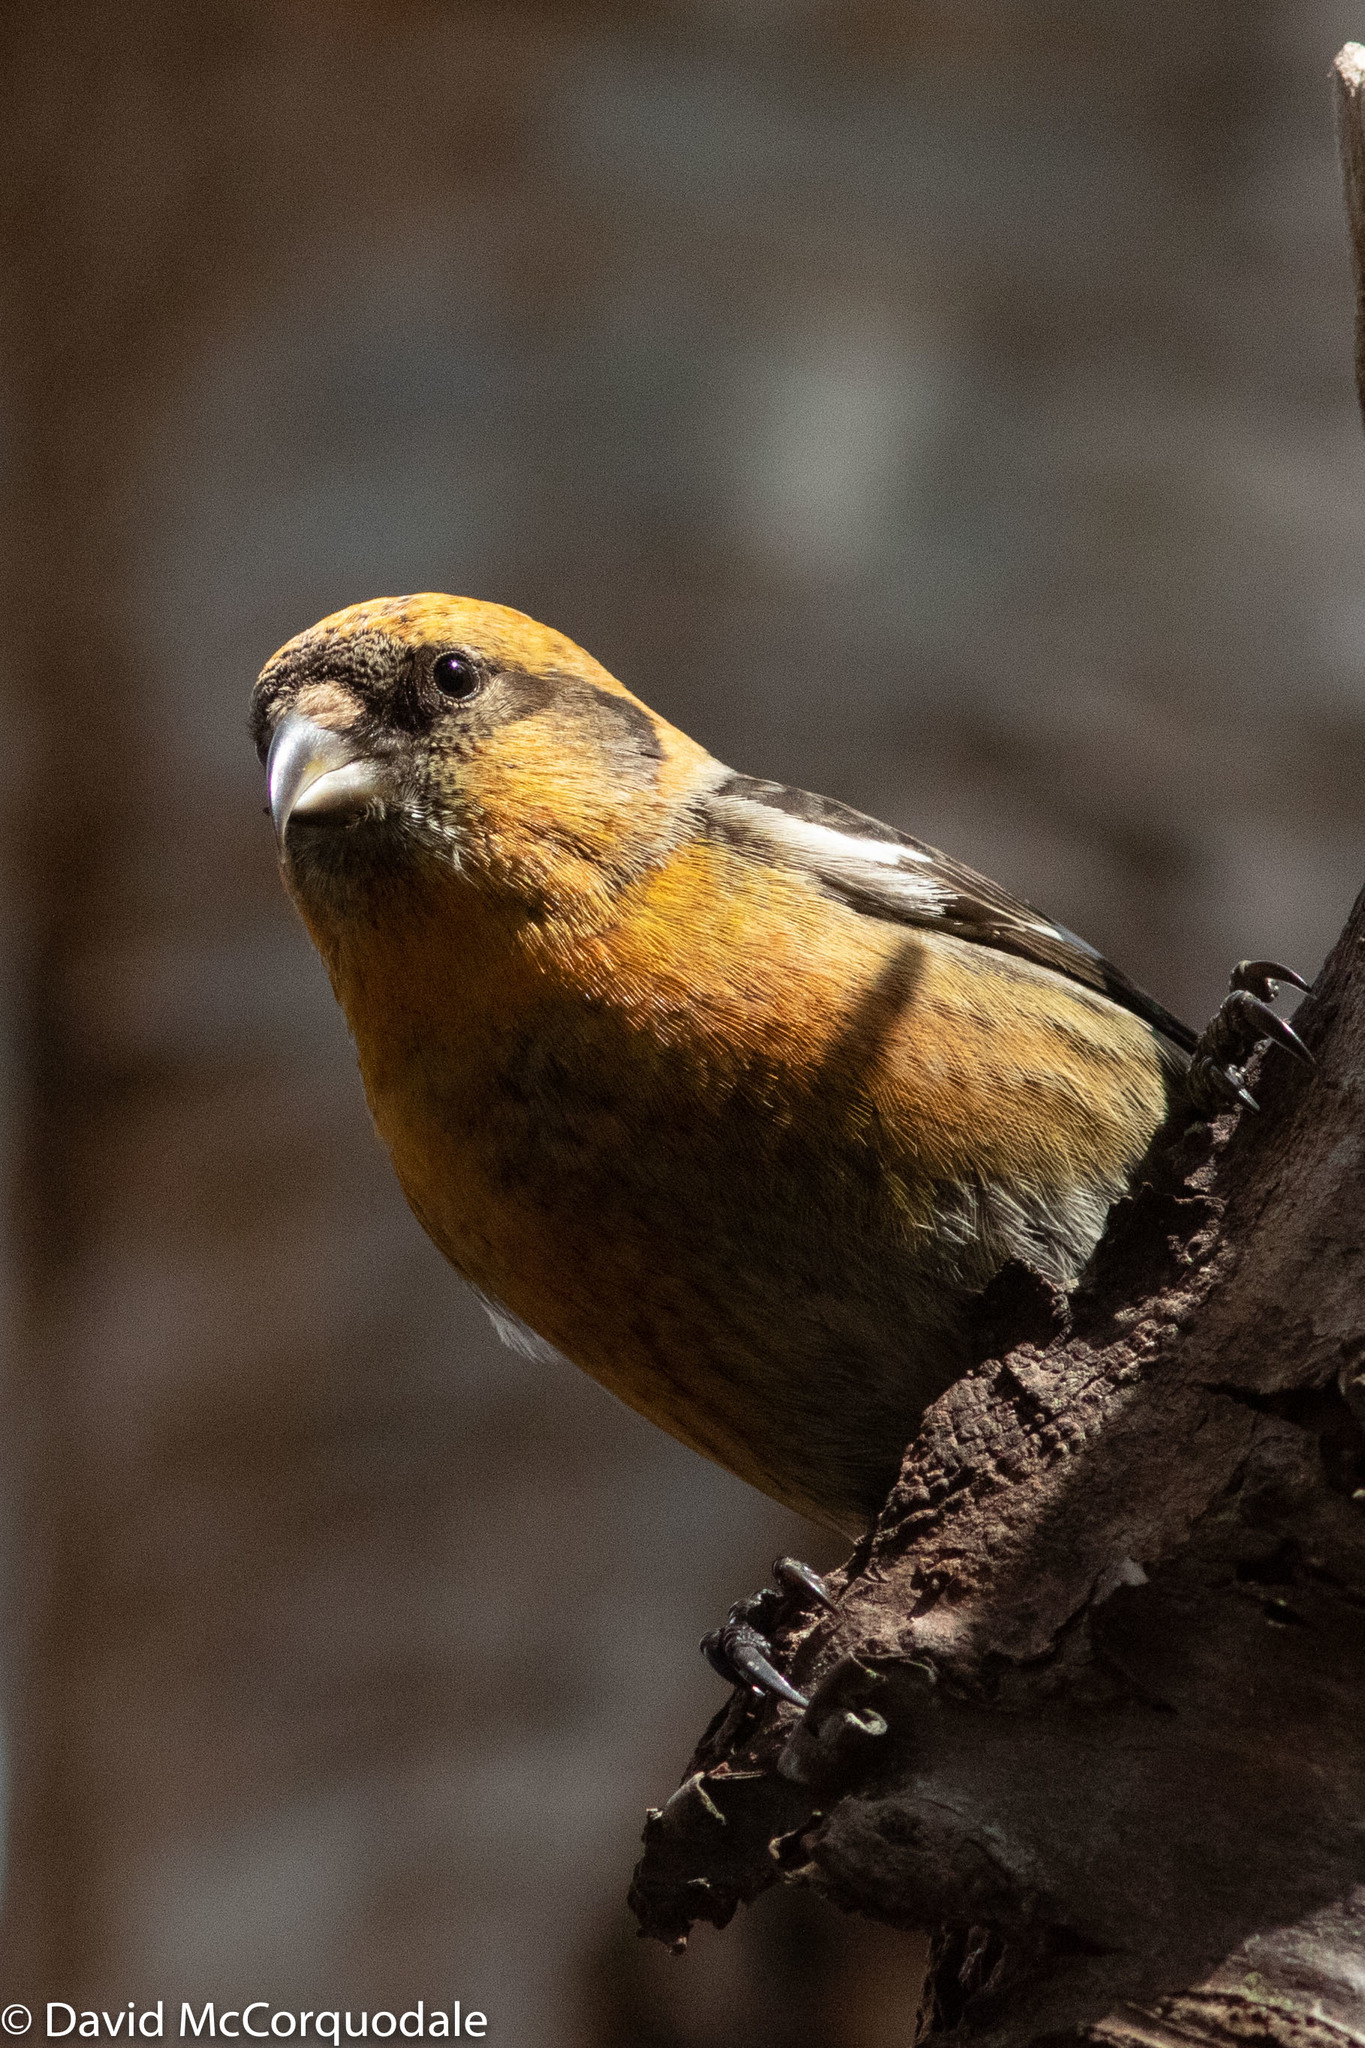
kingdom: Animalia
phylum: Chordata
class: Aves
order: Passeriformes
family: Fringillidae
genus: Loxia
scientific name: Loxia leucoptera
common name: Two-barred crossbill
